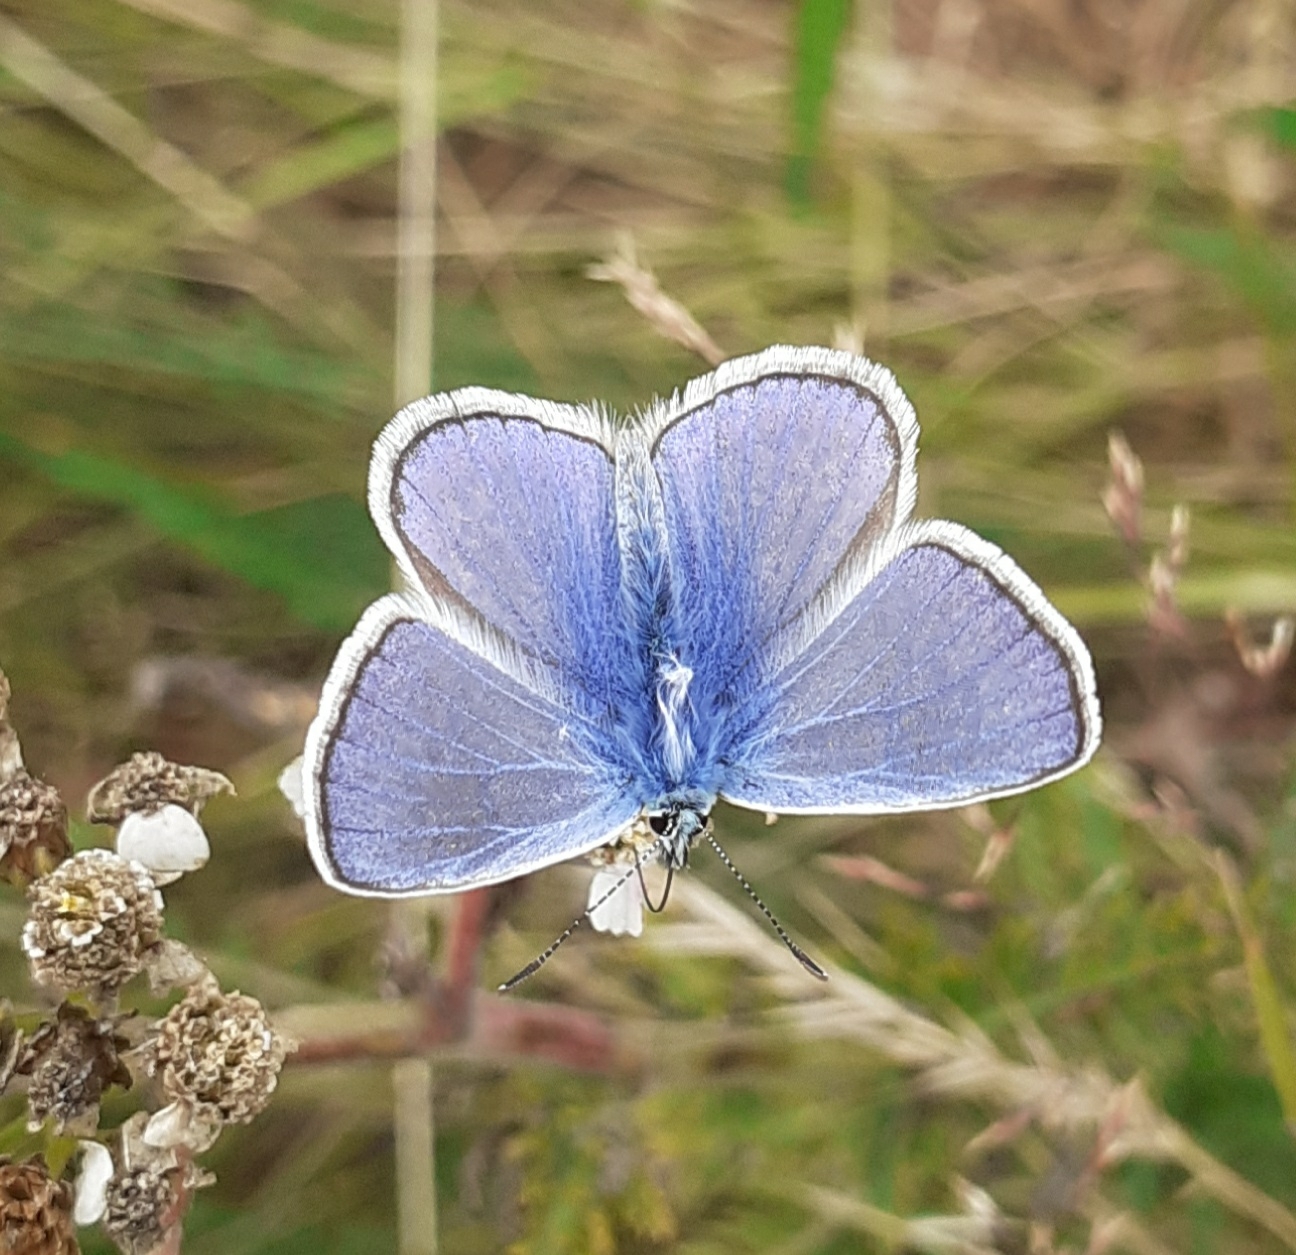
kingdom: Animalia
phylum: Arthropoda
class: Insecta
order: Lepidoptera
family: Lycaenidae
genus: Polyommatus
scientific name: Polyommatus icarus
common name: Common blue
